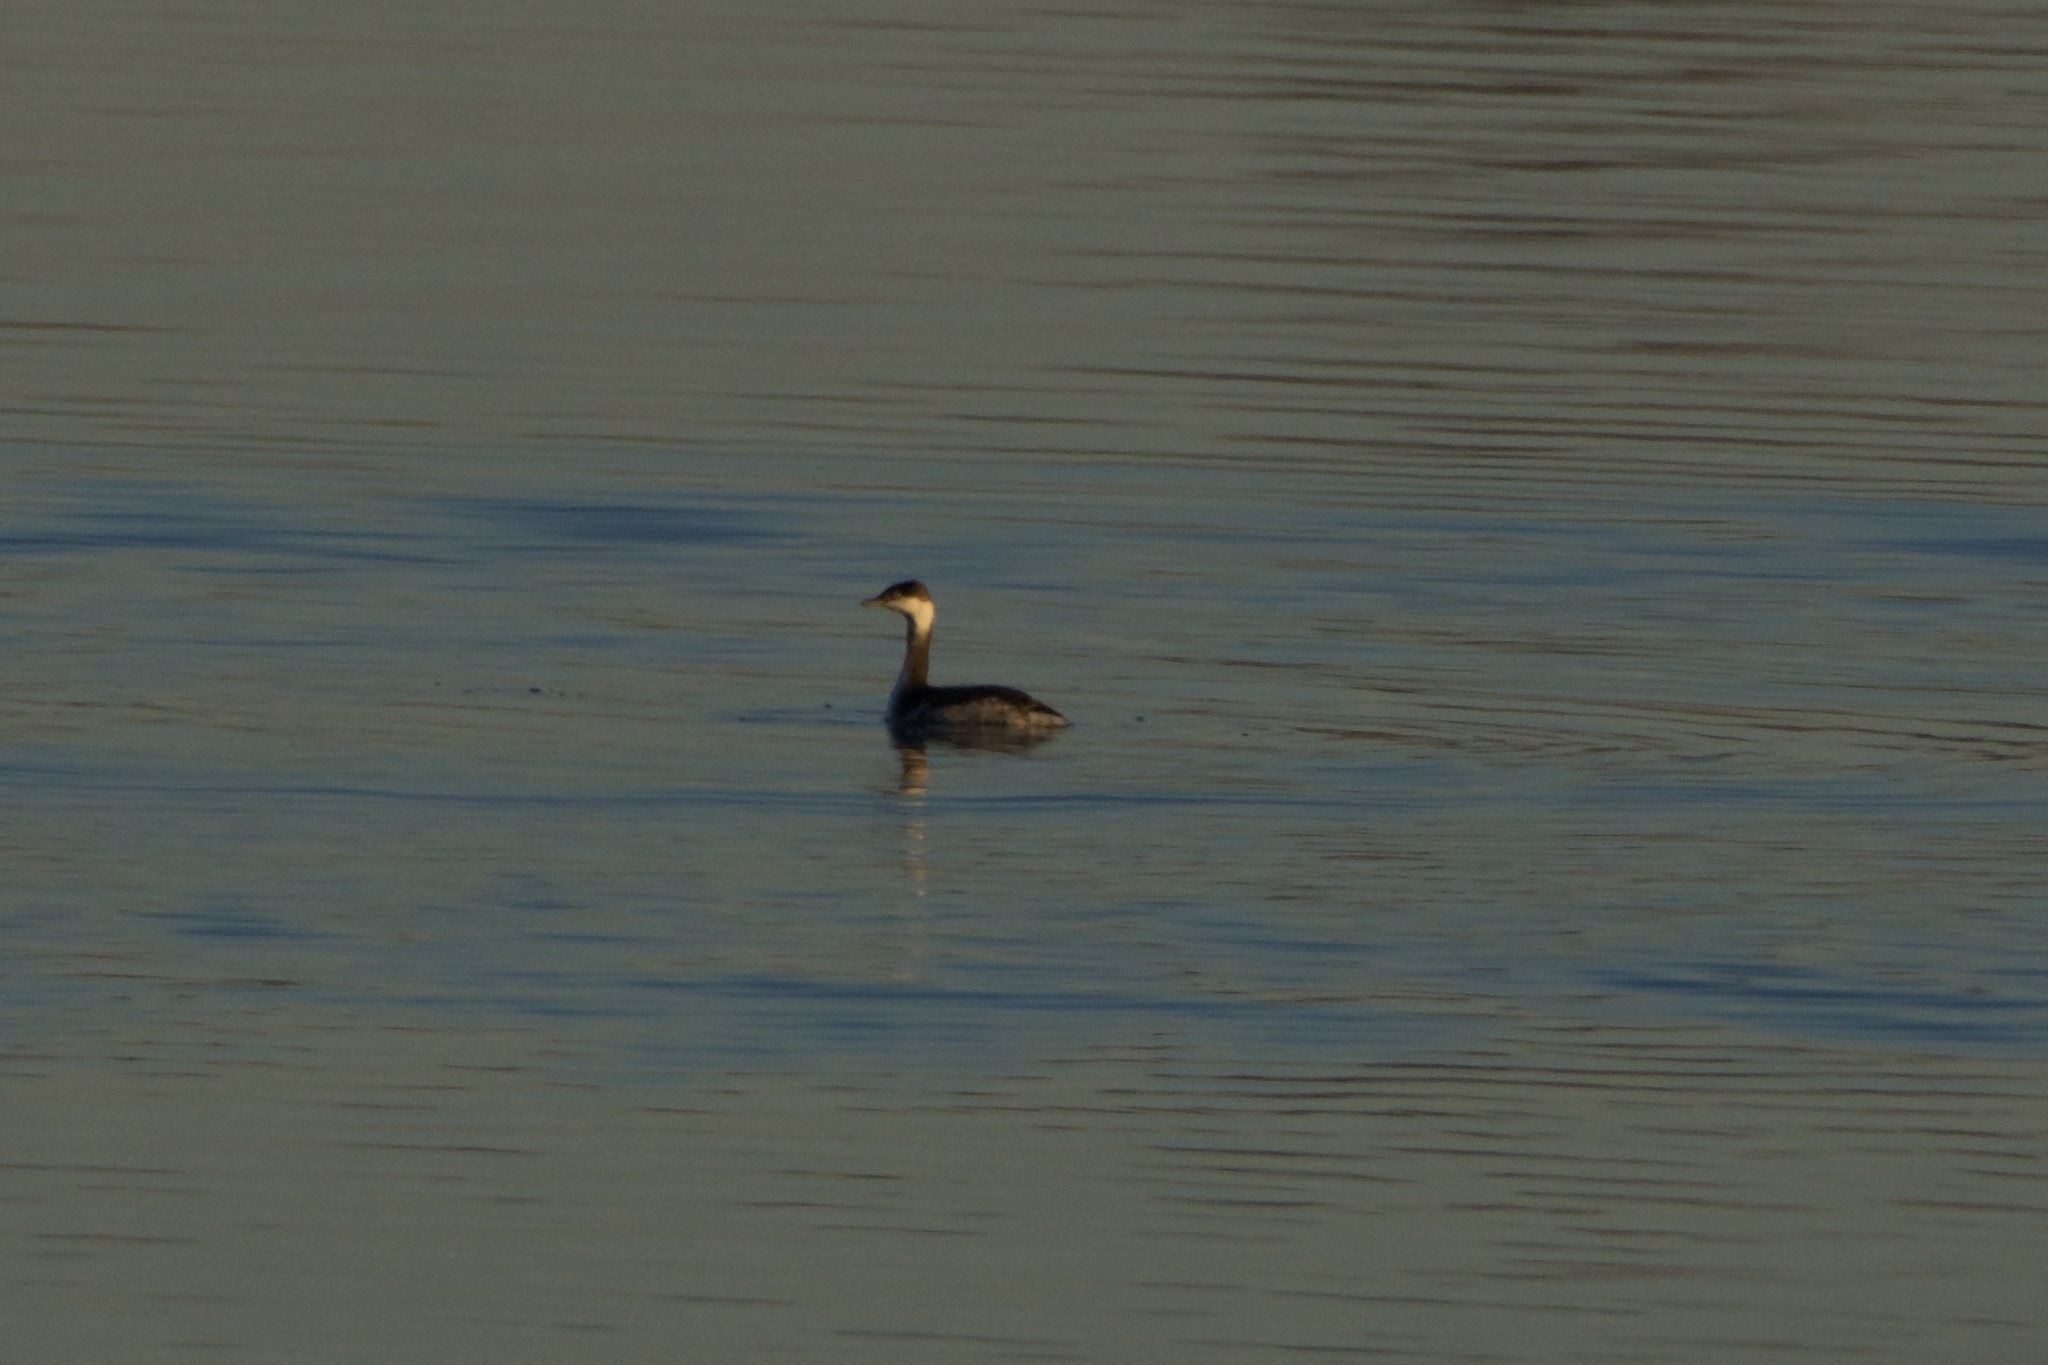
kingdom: Animalia
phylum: Chordata
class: Aves
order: Podicipediformes
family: Podicipedidae
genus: Podiceps
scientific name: Podiceps auritus
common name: Horned grebe
